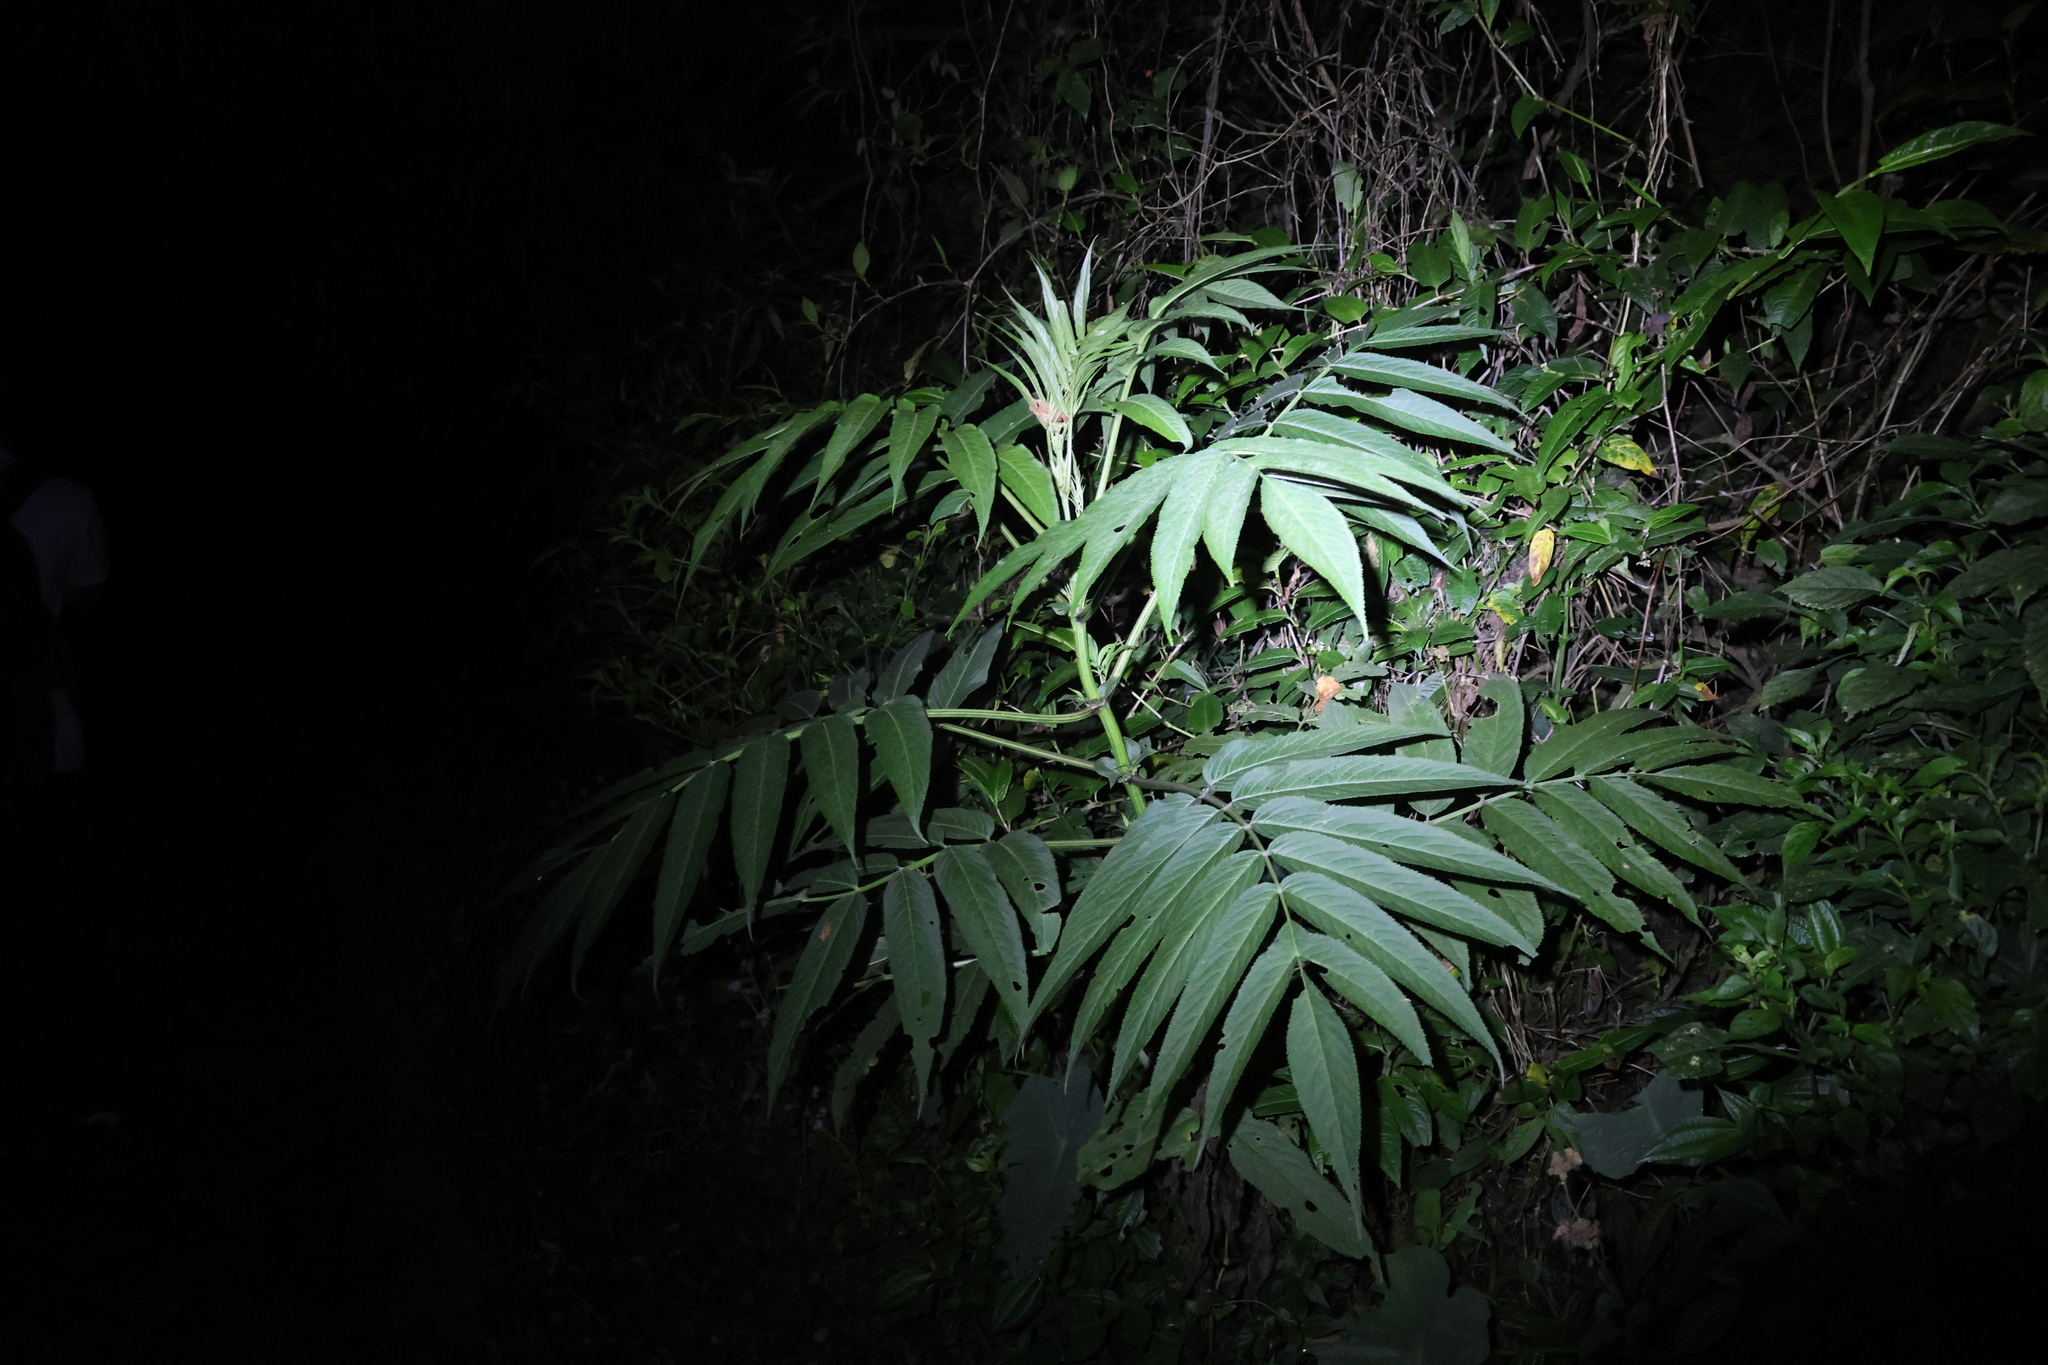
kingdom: Plantae
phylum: Tracheophyta
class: Magnoliopsida
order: Dipsacales
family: Viburnaceae
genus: Sambucus
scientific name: Sambucus javanica
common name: Chinese elder
